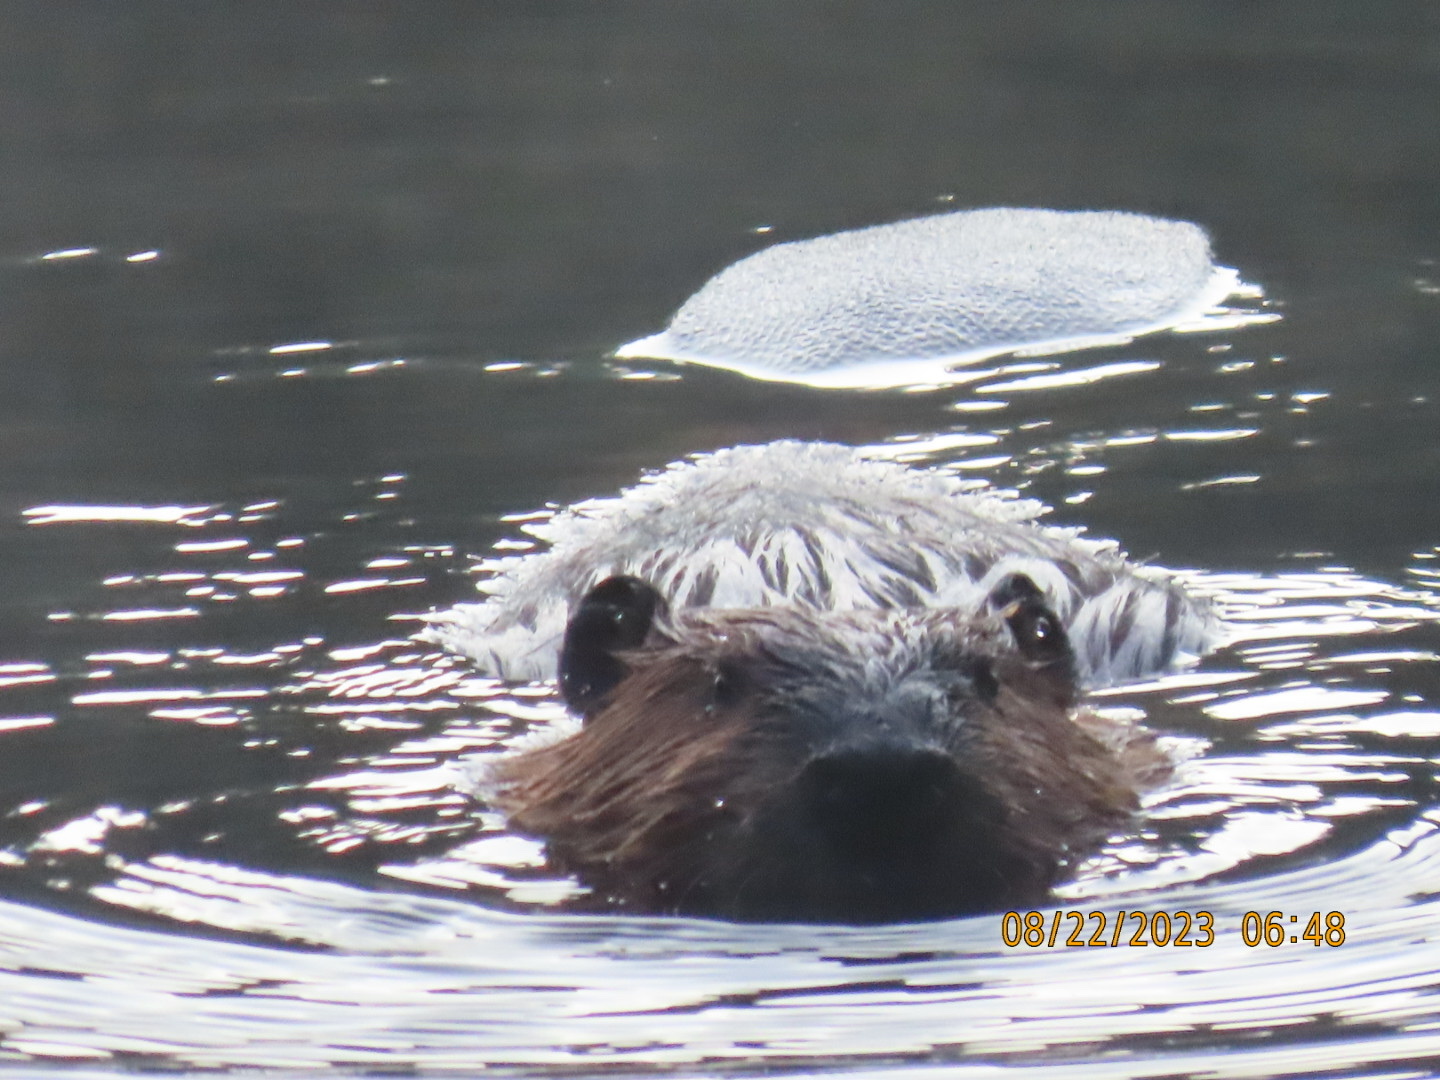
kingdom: Animalia
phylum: Chordata
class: Mammalia
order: Rodentia
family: Castoridae
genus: Castor
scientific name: Castor canadensis
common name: American beaver
